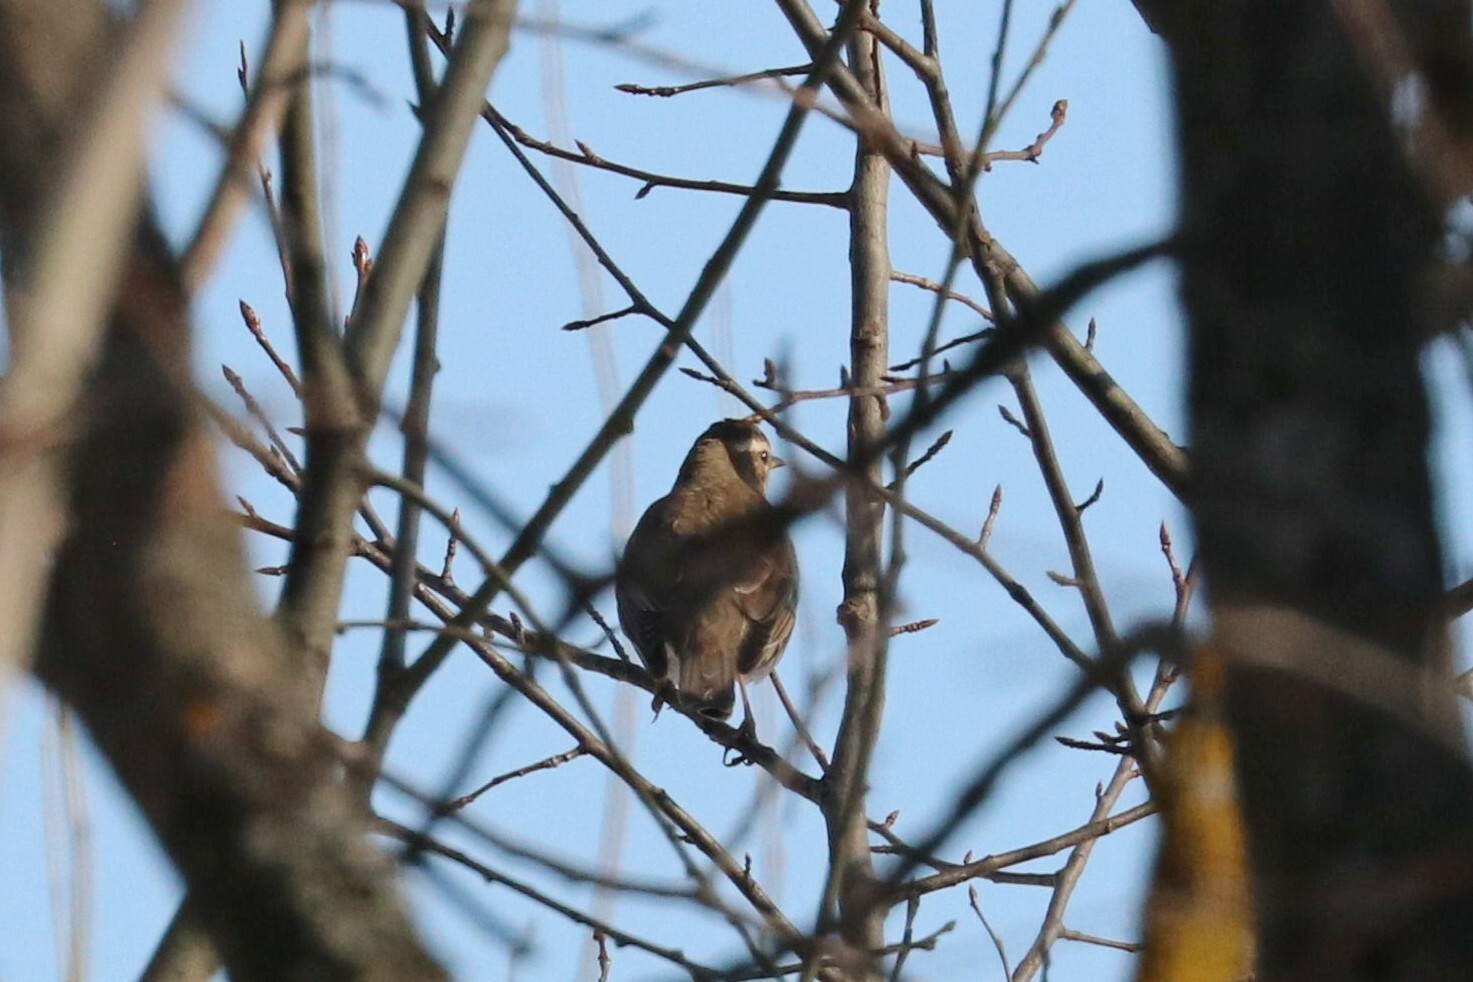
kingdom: Animalia
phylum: Chordata
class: Aves
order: Passeriformes
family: Turdidae
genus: Turdus
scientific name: Turdus iliacus
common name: Redwing
